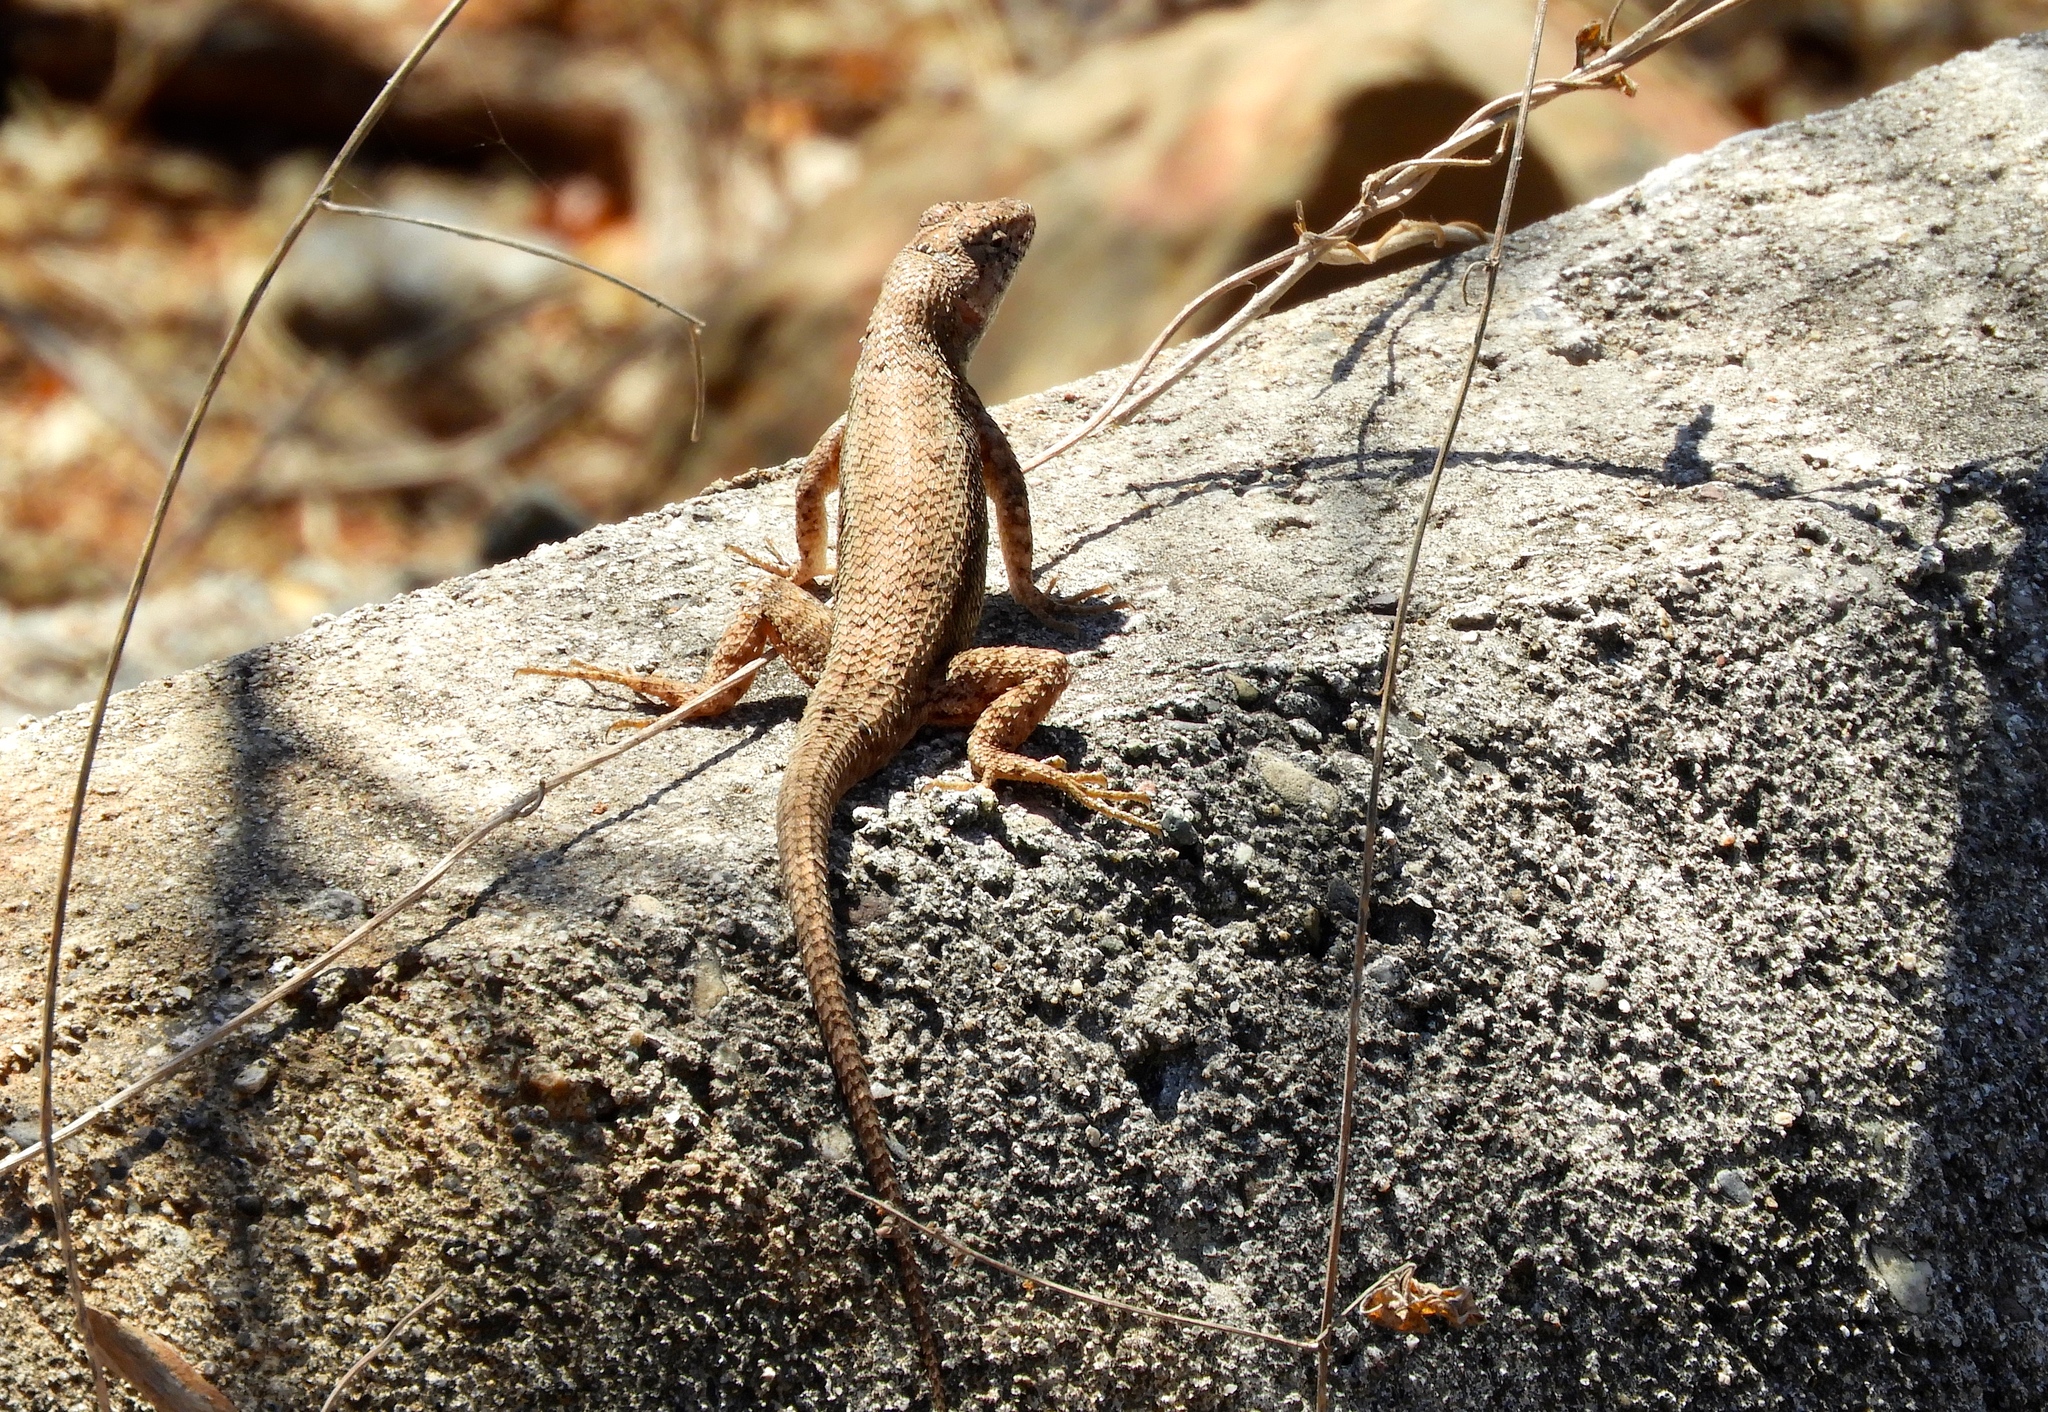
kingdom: Animalia
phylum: Chordata
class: Squamata
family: Phrynosomatidae
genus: Sceloporus
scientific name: Sceloporus nelsoni
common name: Nelson's spiny lizard
